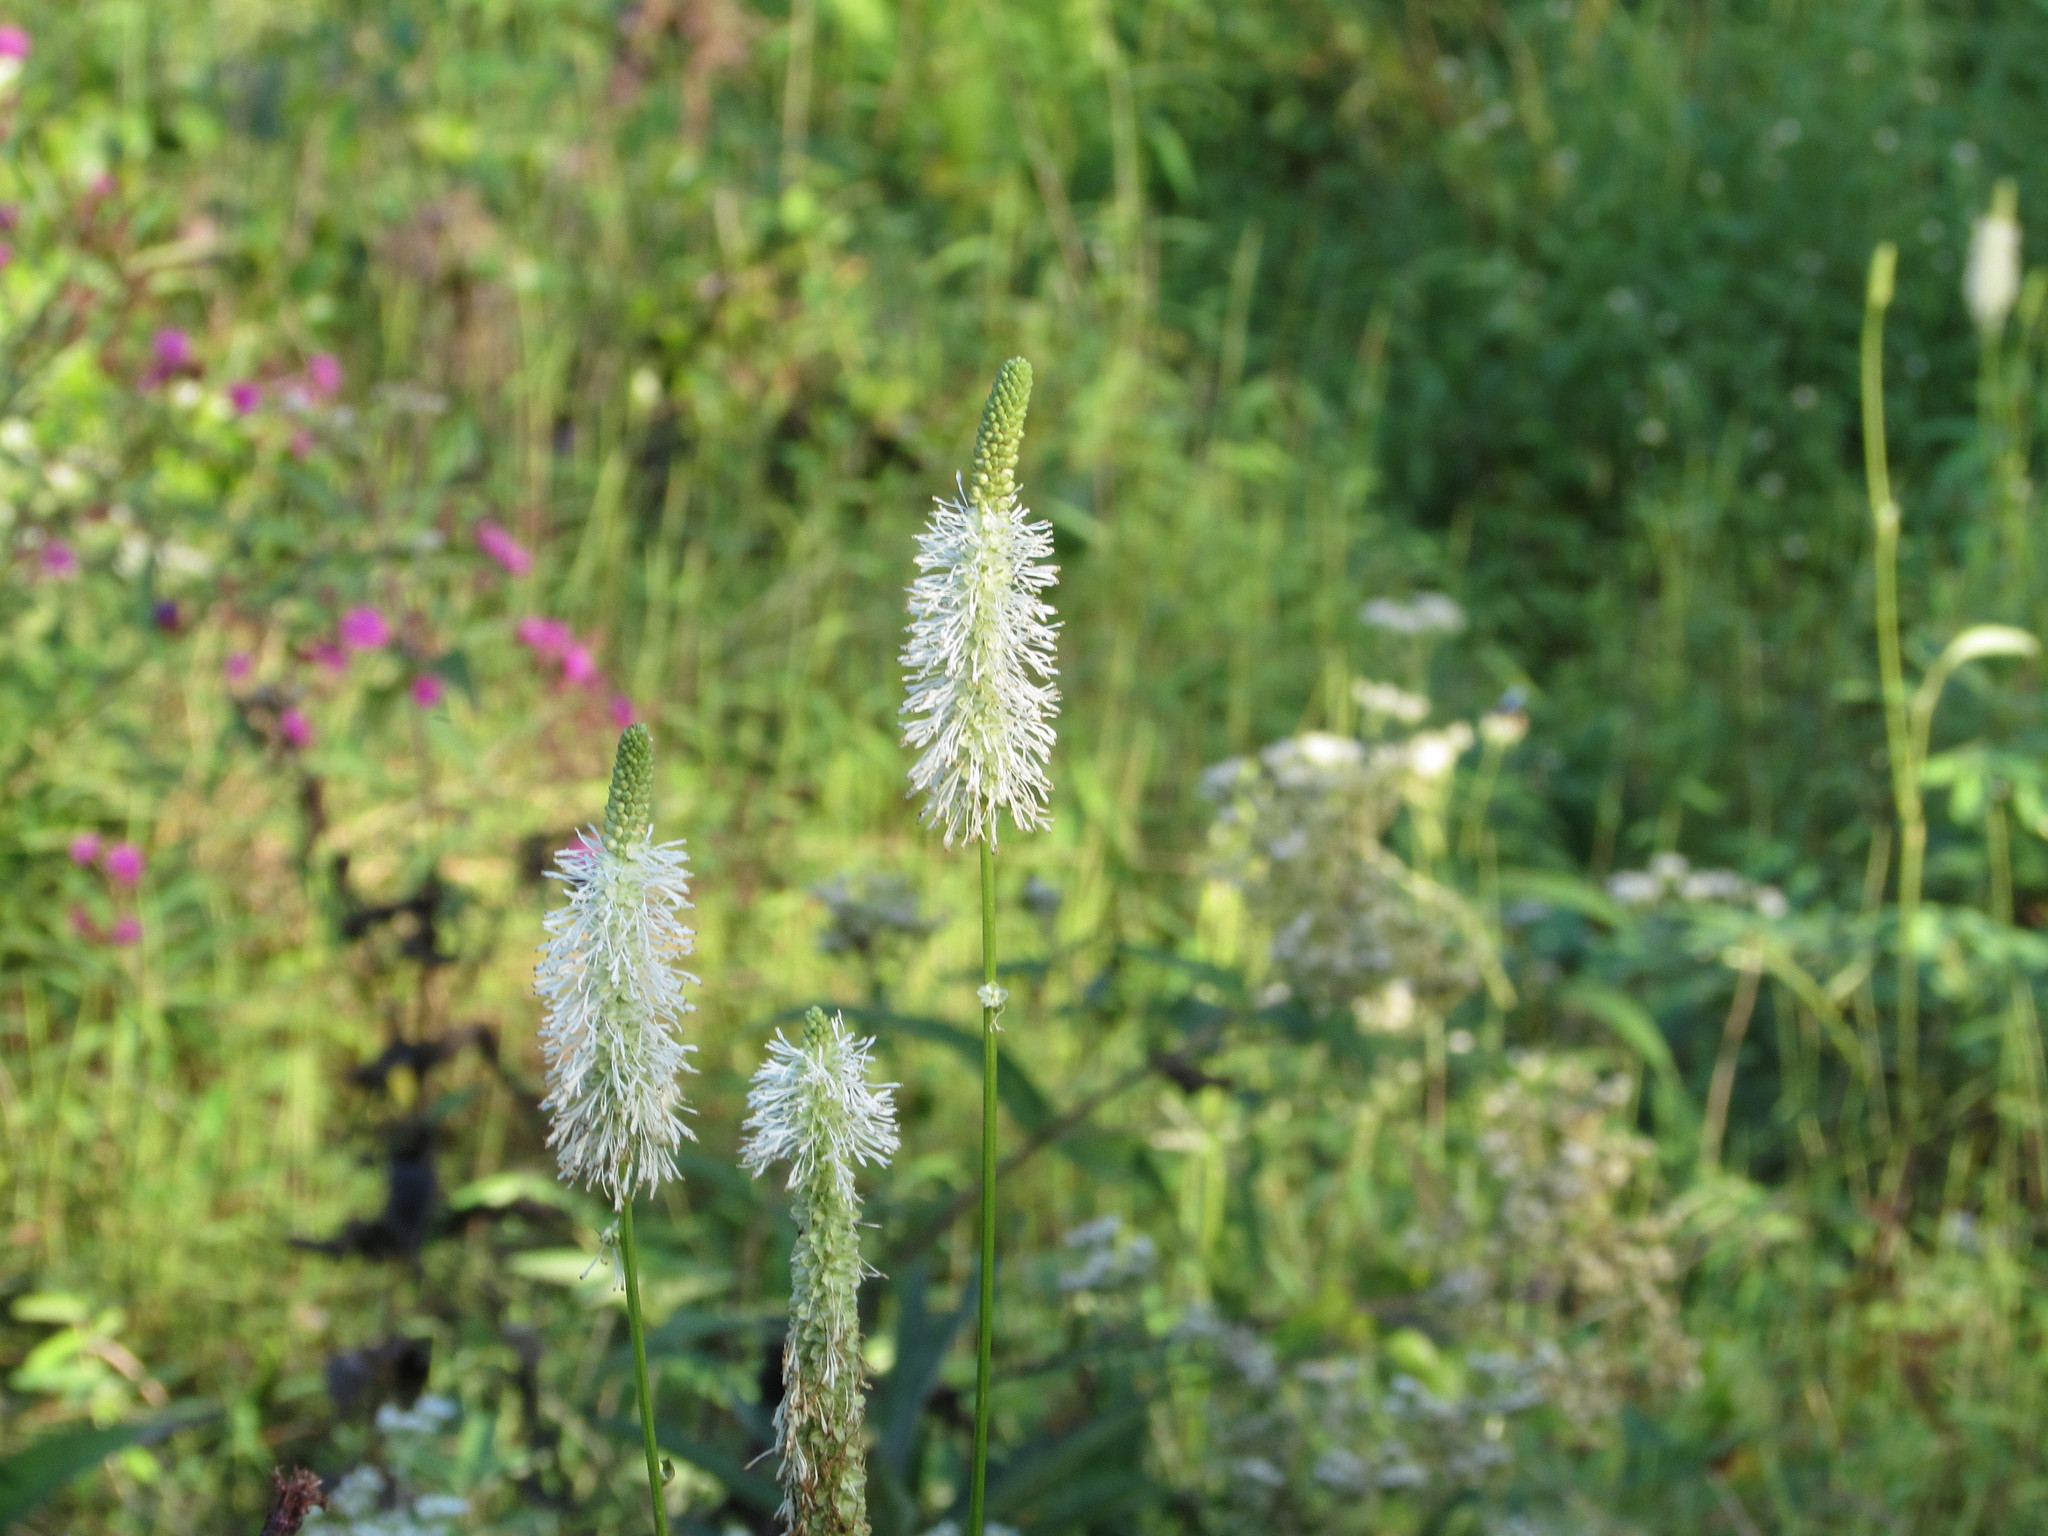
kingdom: Plantae
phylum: Tracheophyta
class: Magnoliopsida
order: Rosales
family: Rosaceae
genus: Sanguisorba
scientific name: Sanguisorba canadensis
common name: White burnet
